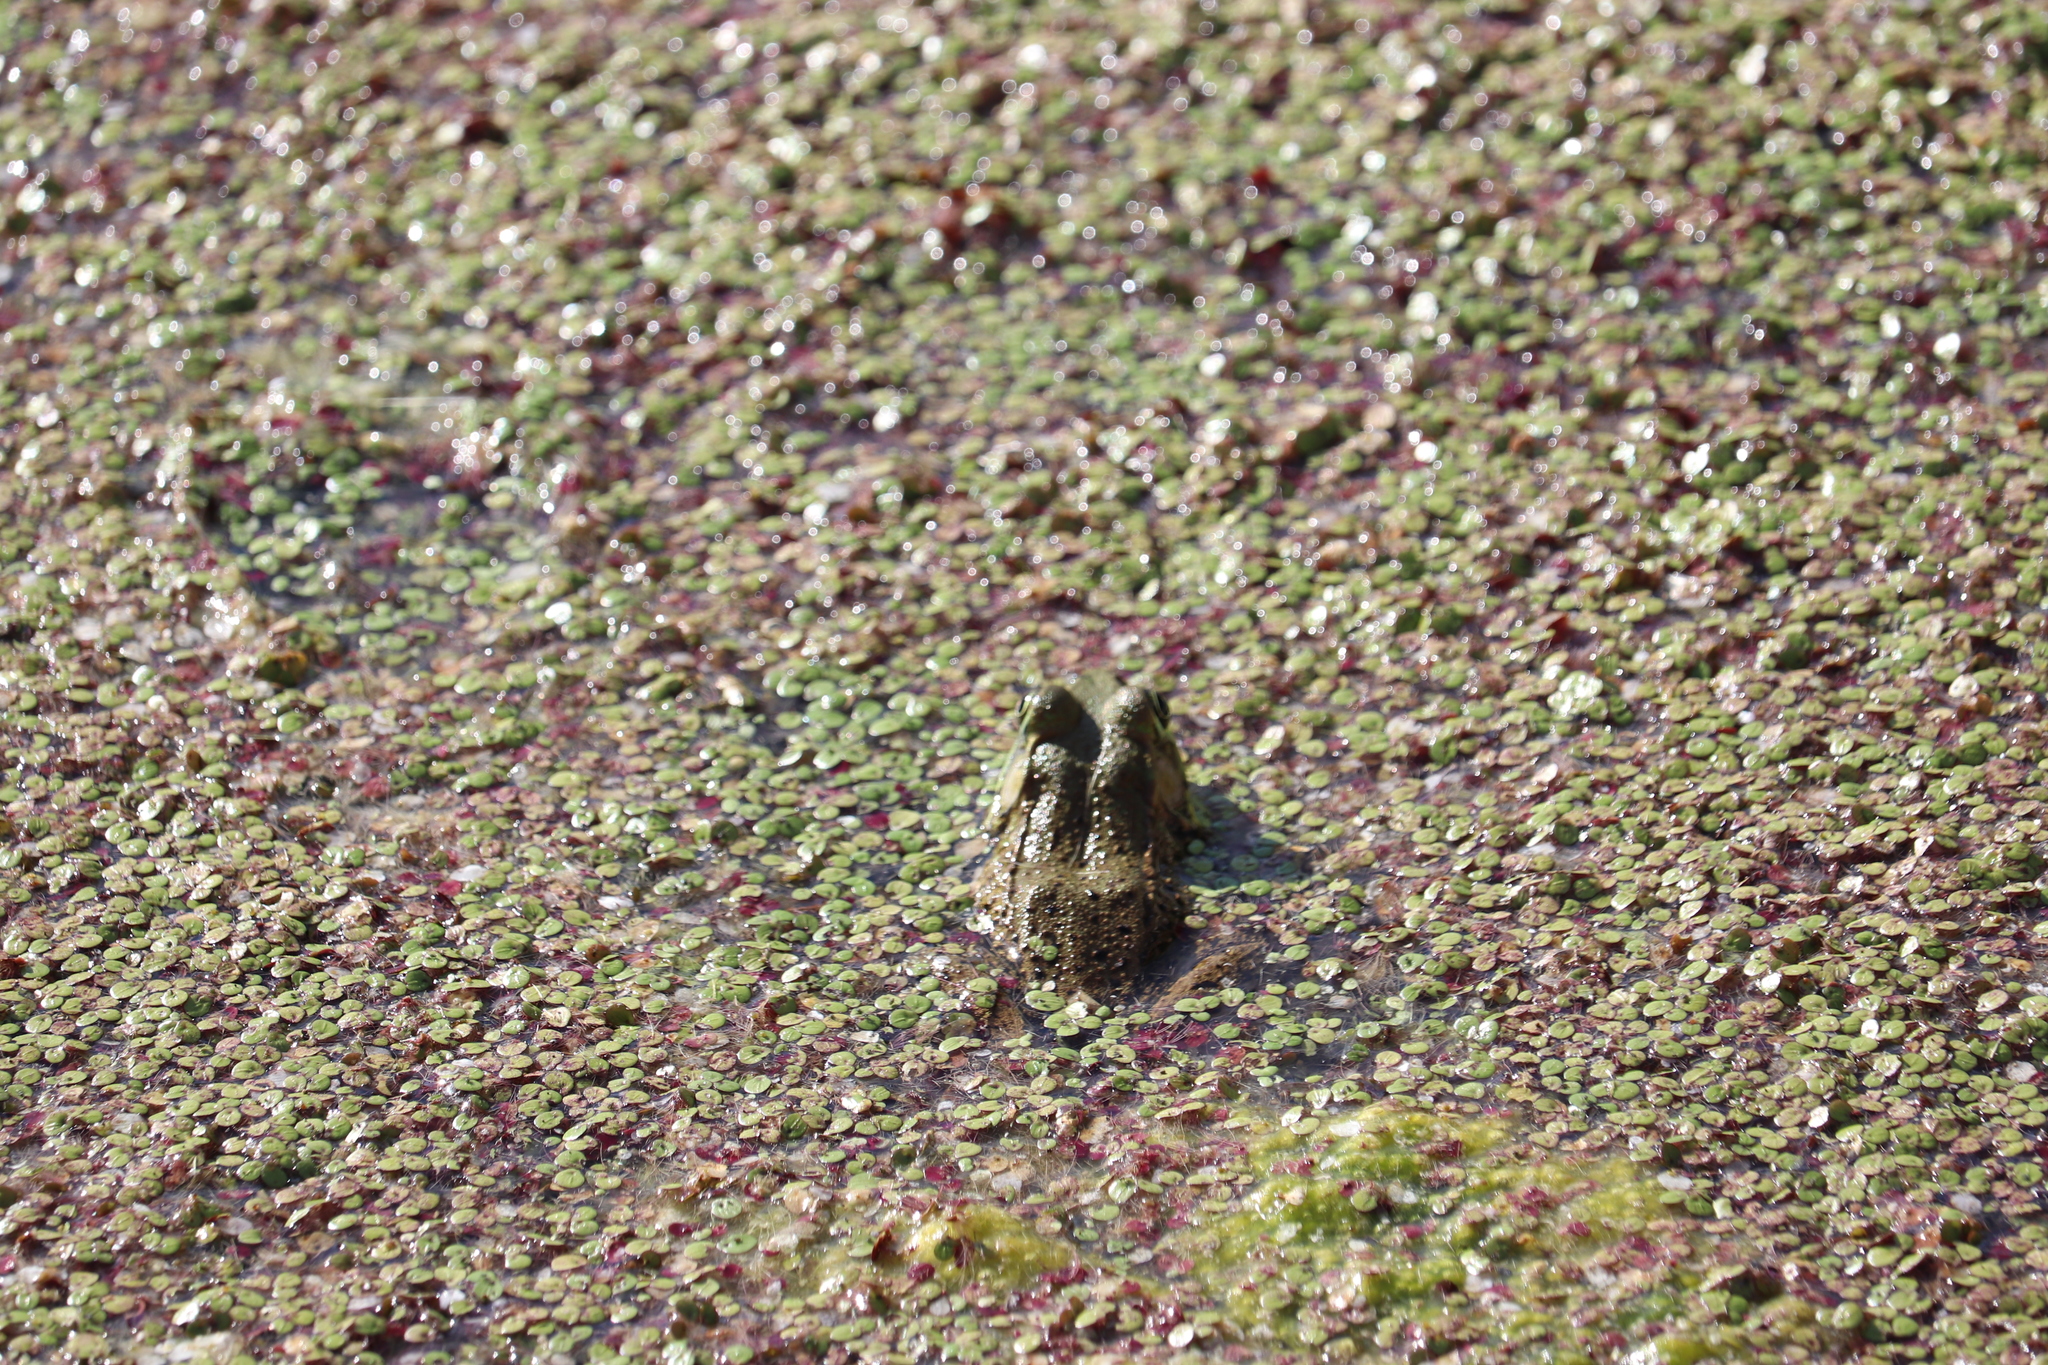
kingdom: Animalia
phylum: Chordata
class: Amphibia
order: Anura
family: Ranidae
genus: Lithobates
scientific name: Lithobates clamitans
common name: Green frog
